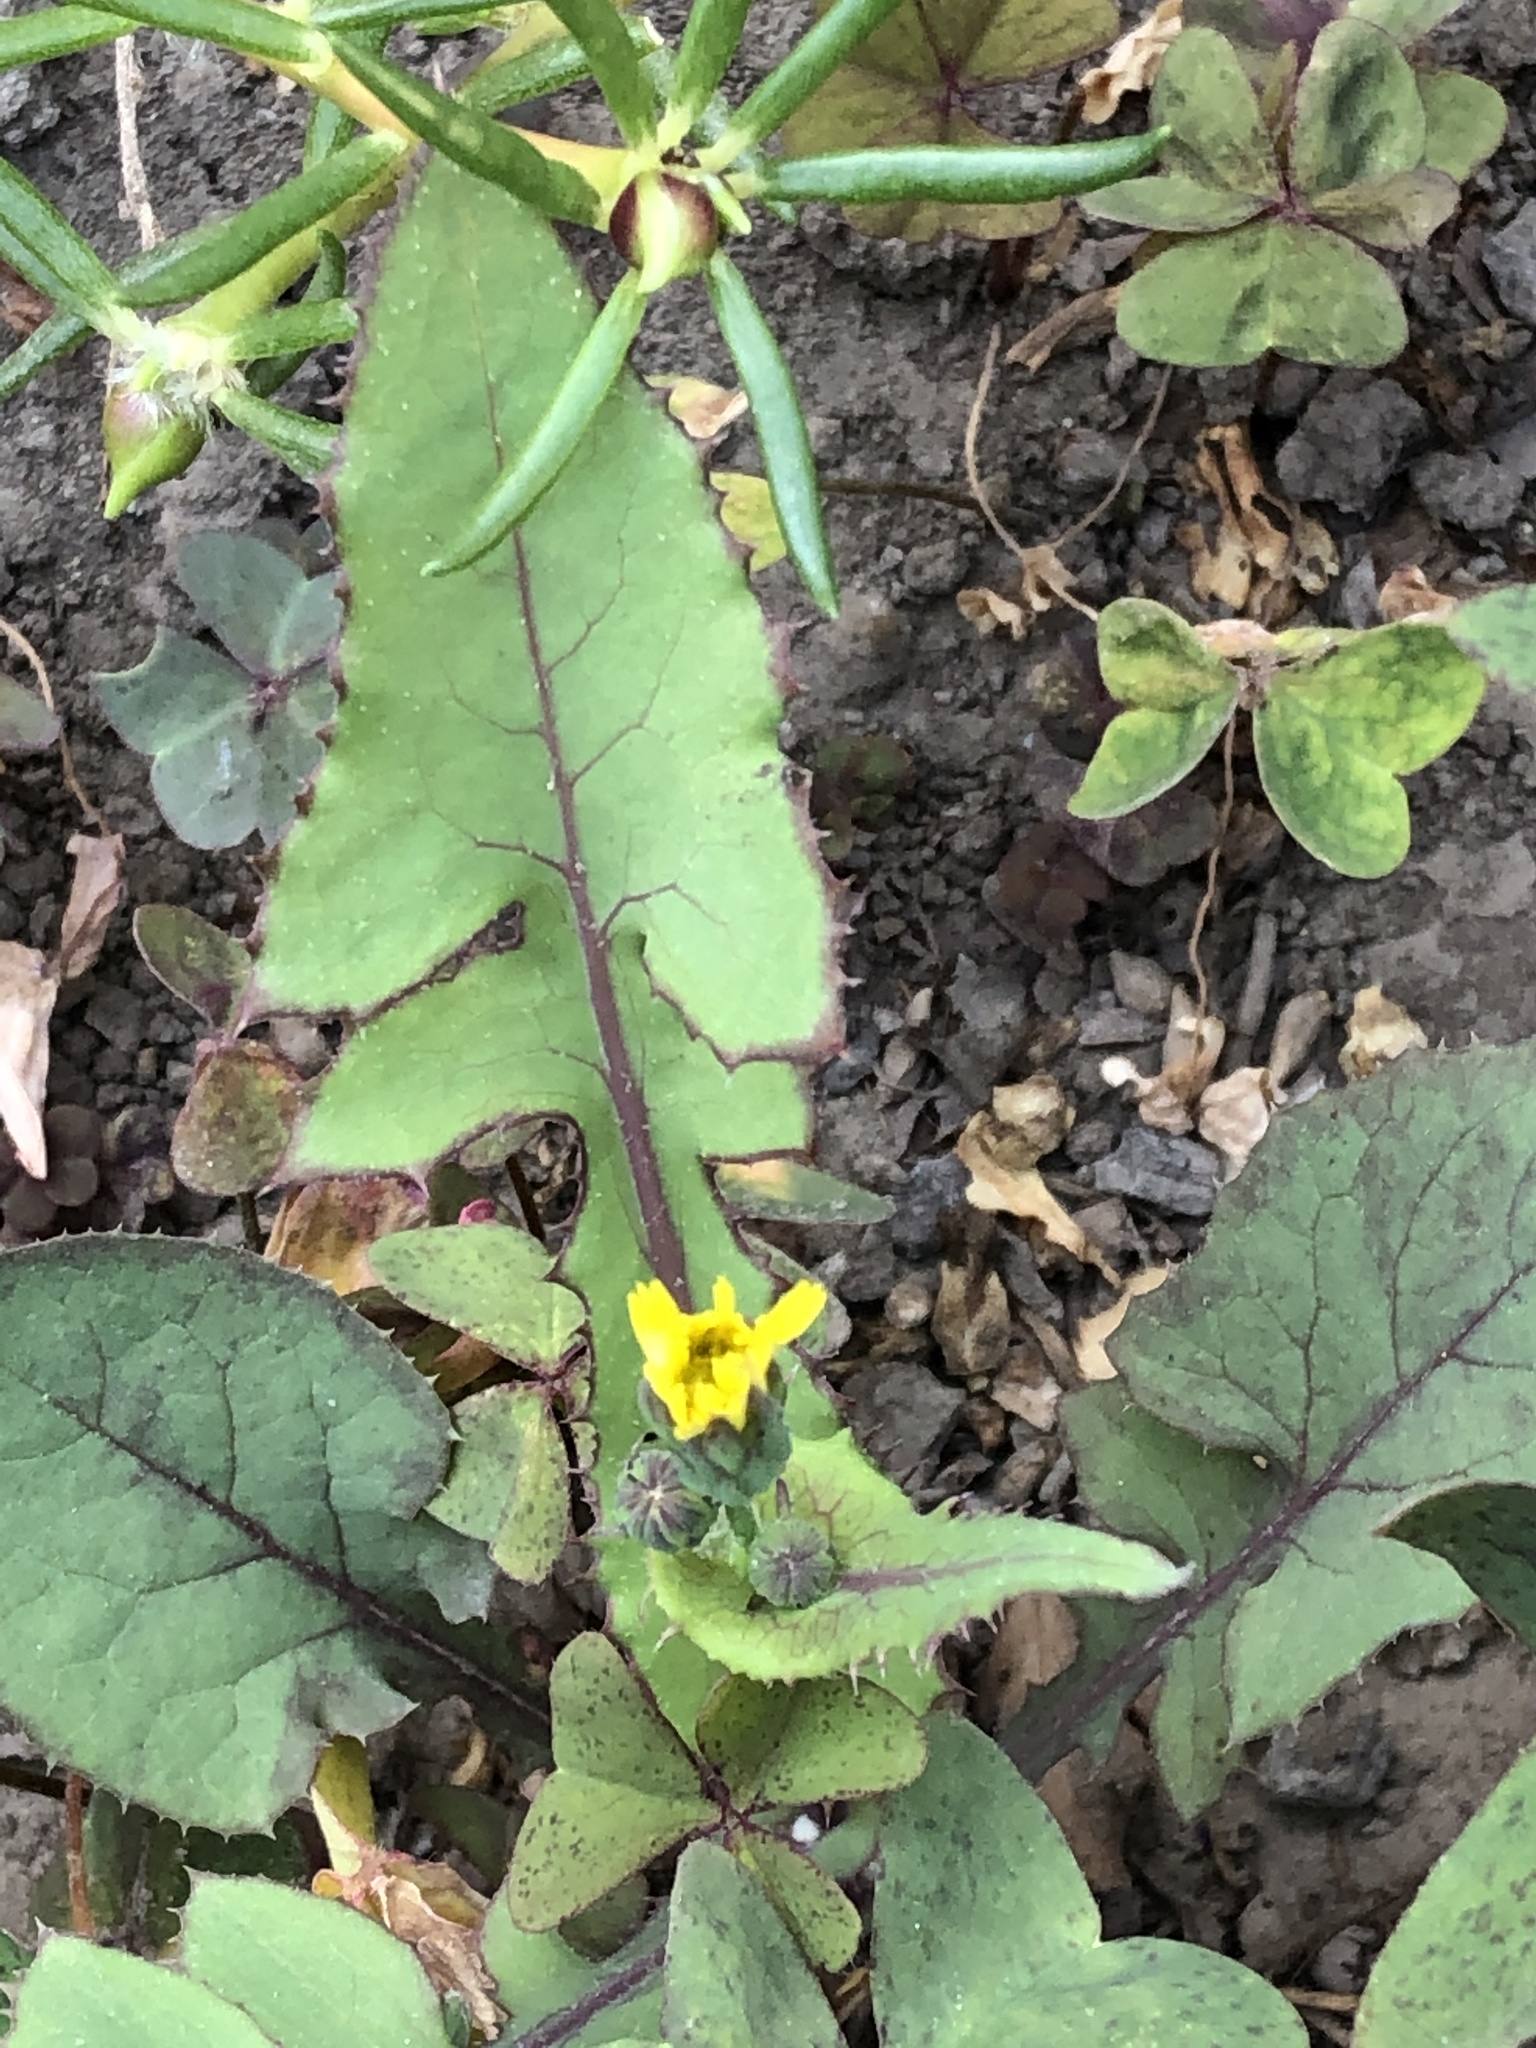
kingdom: Plantae
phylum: Tracheophyta
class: Magnoliopsida
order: Asterales
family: Asteraceae
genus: Sonchus
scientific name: Sonchus oleraceus
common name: Common sowthistle
